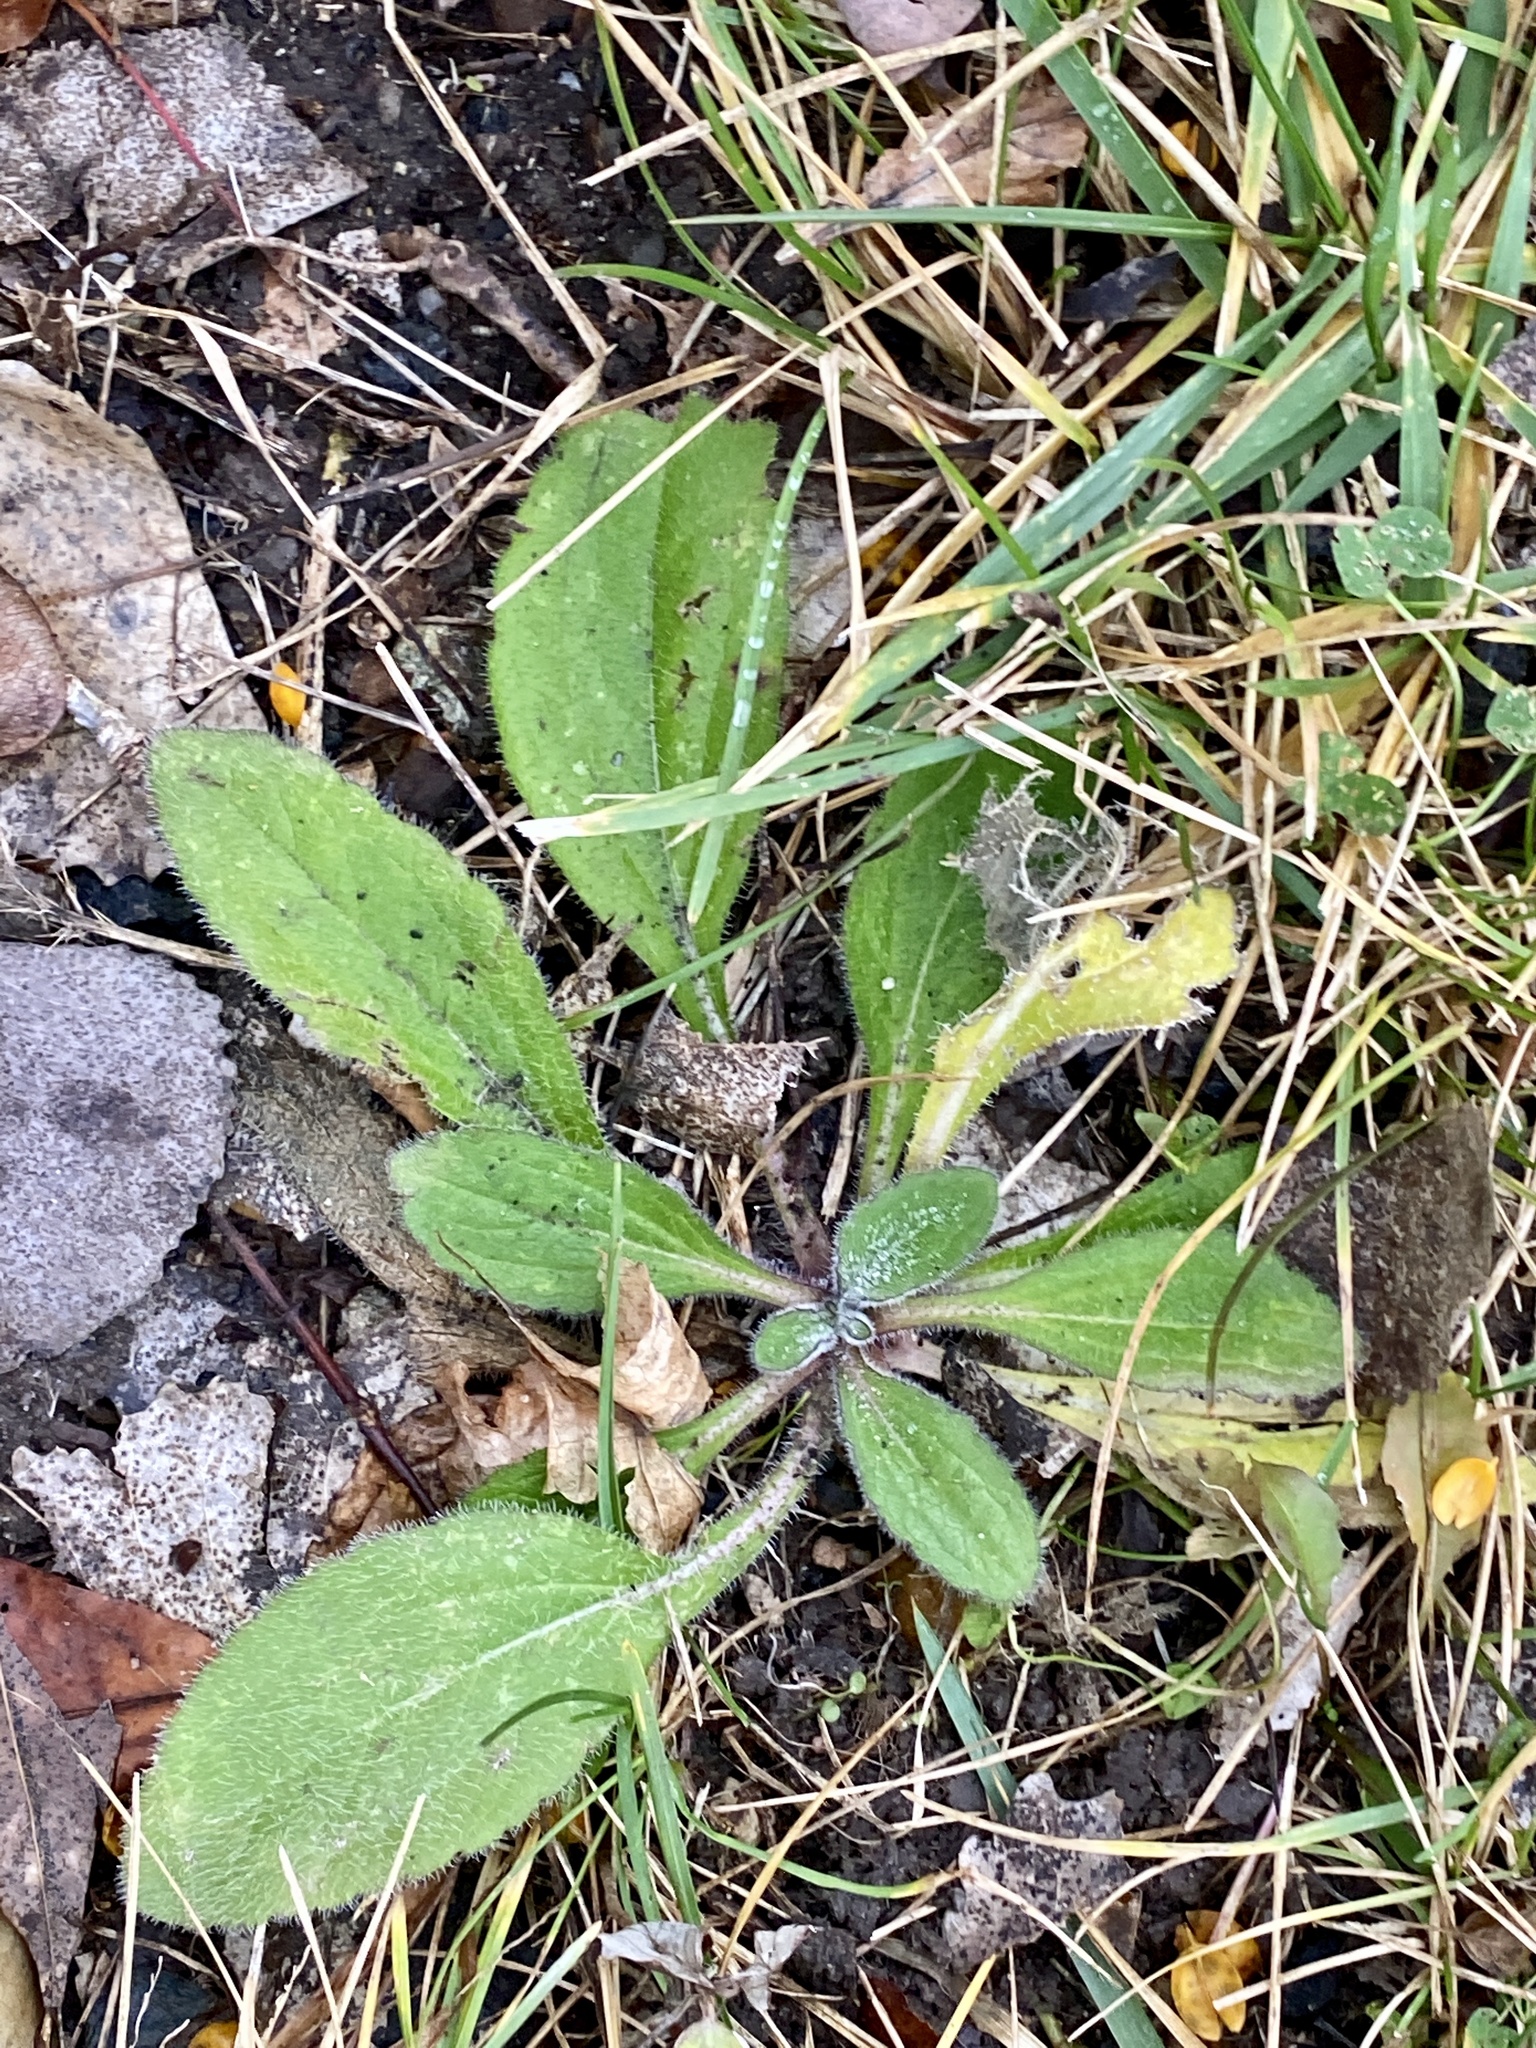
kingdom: Plantae
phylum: Tracheophyta
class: Magnoliopsida
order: Asterales
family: Asteraceae
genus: Rudbeckia
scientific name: Rudbeckia hirta
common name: Black-eyed-susan
